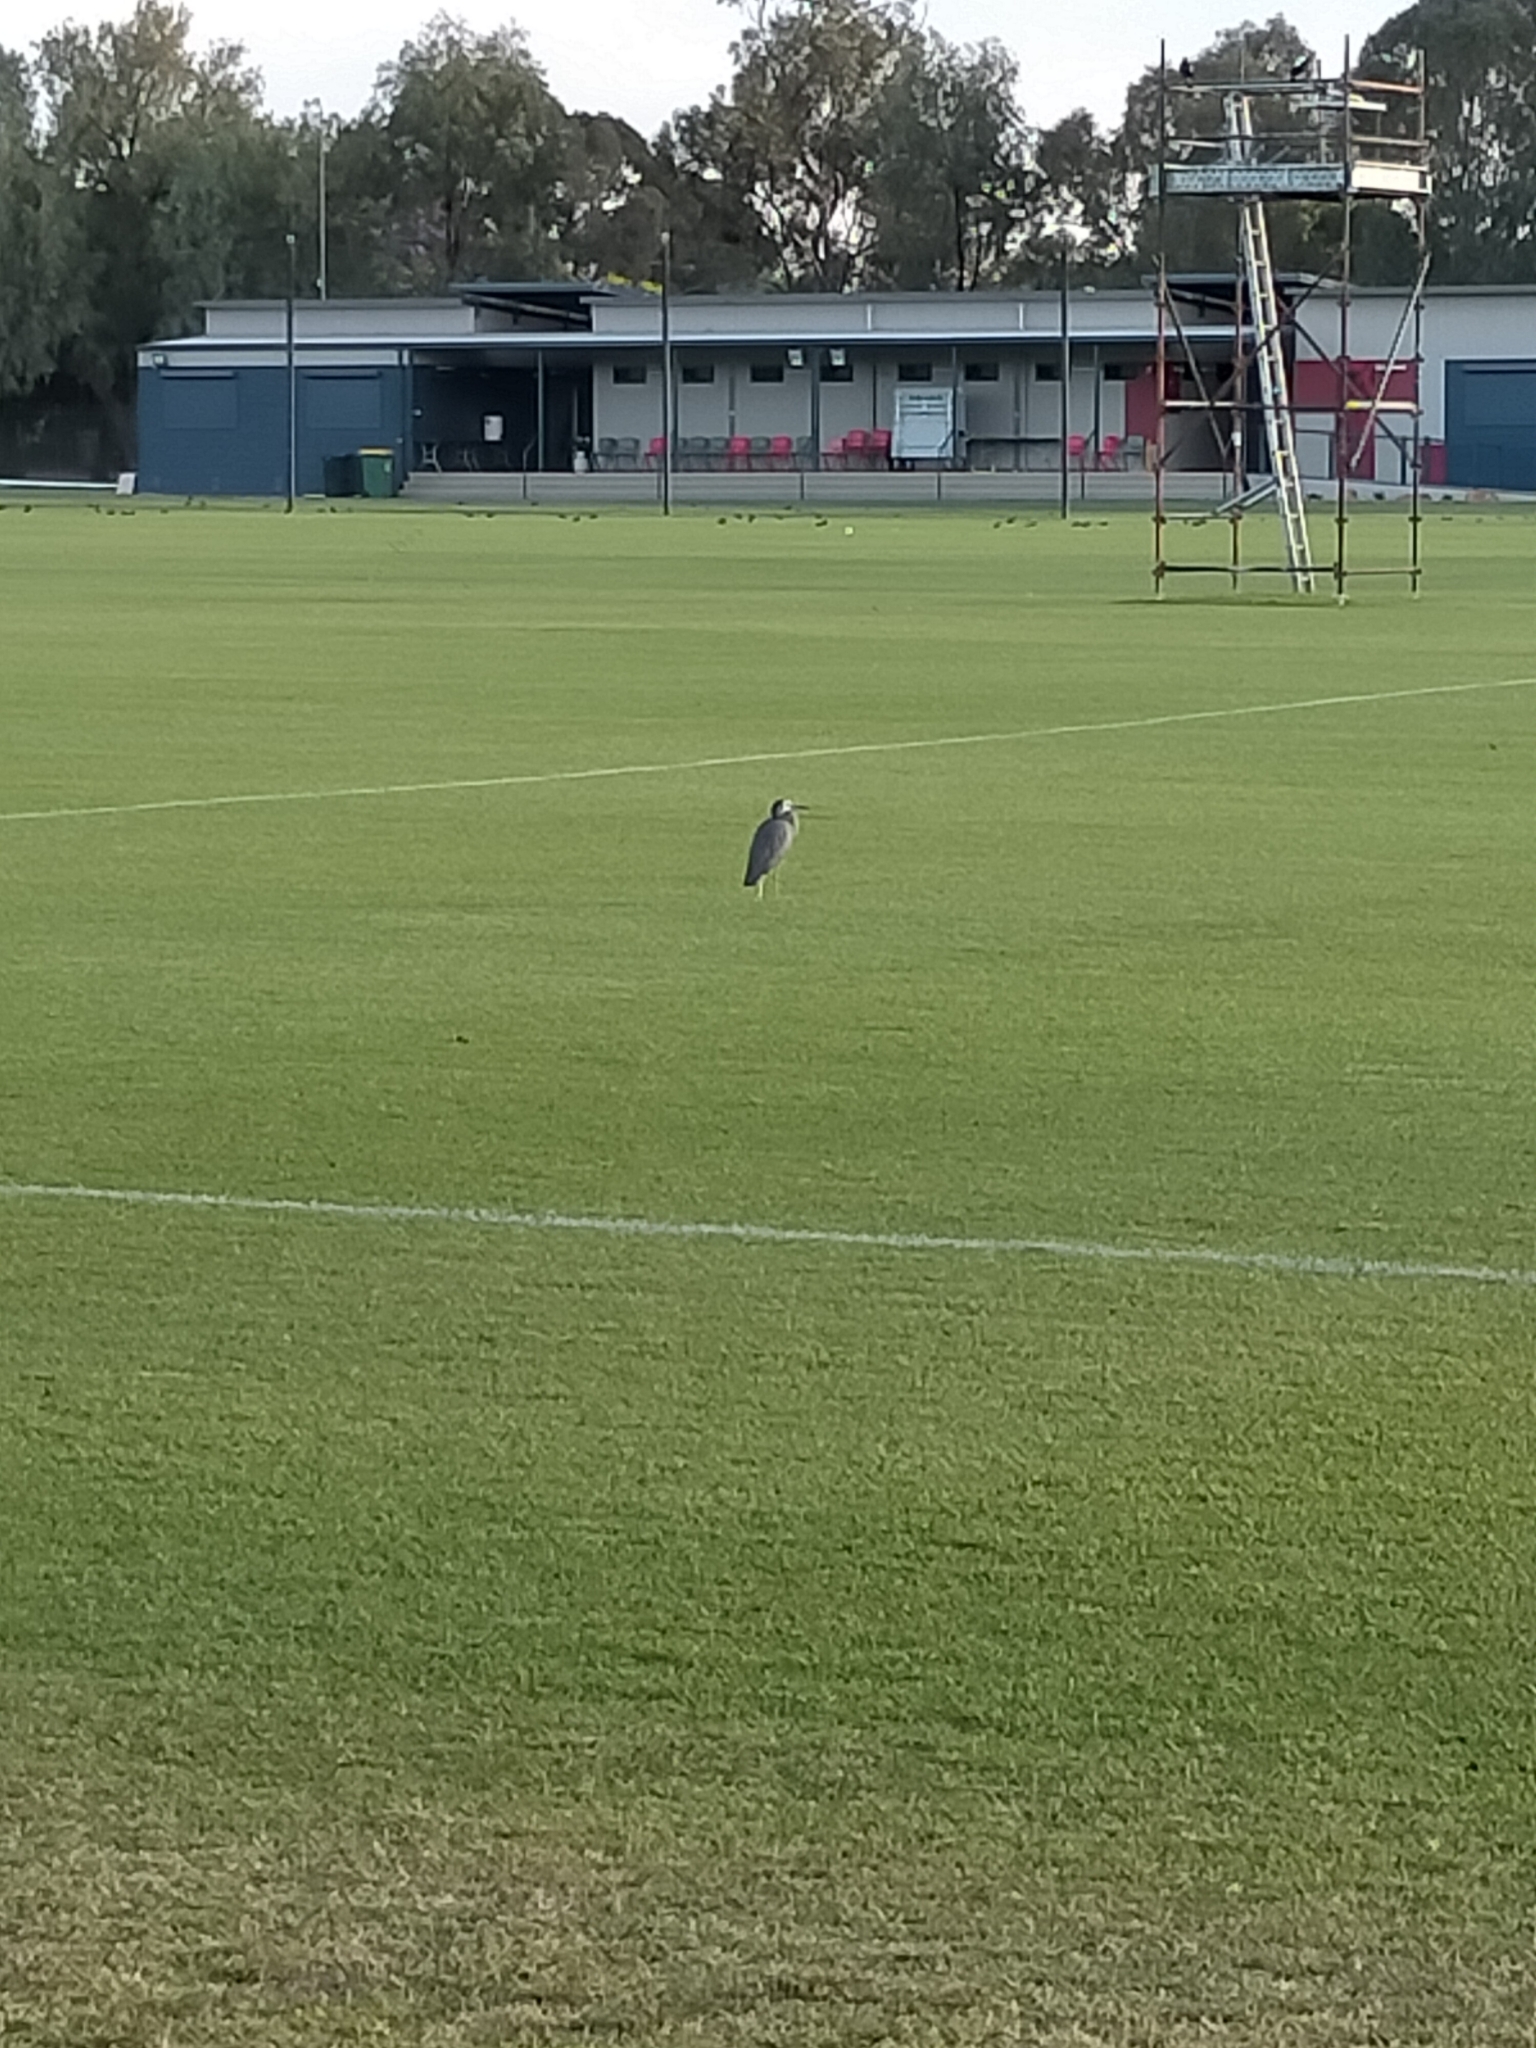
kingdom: Animalia
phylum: Chordata
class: Aves
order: Pelecaniformes
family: Ardeidae
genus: Egretta
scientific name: Egretta novaehollandiae
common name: White-faced heron
